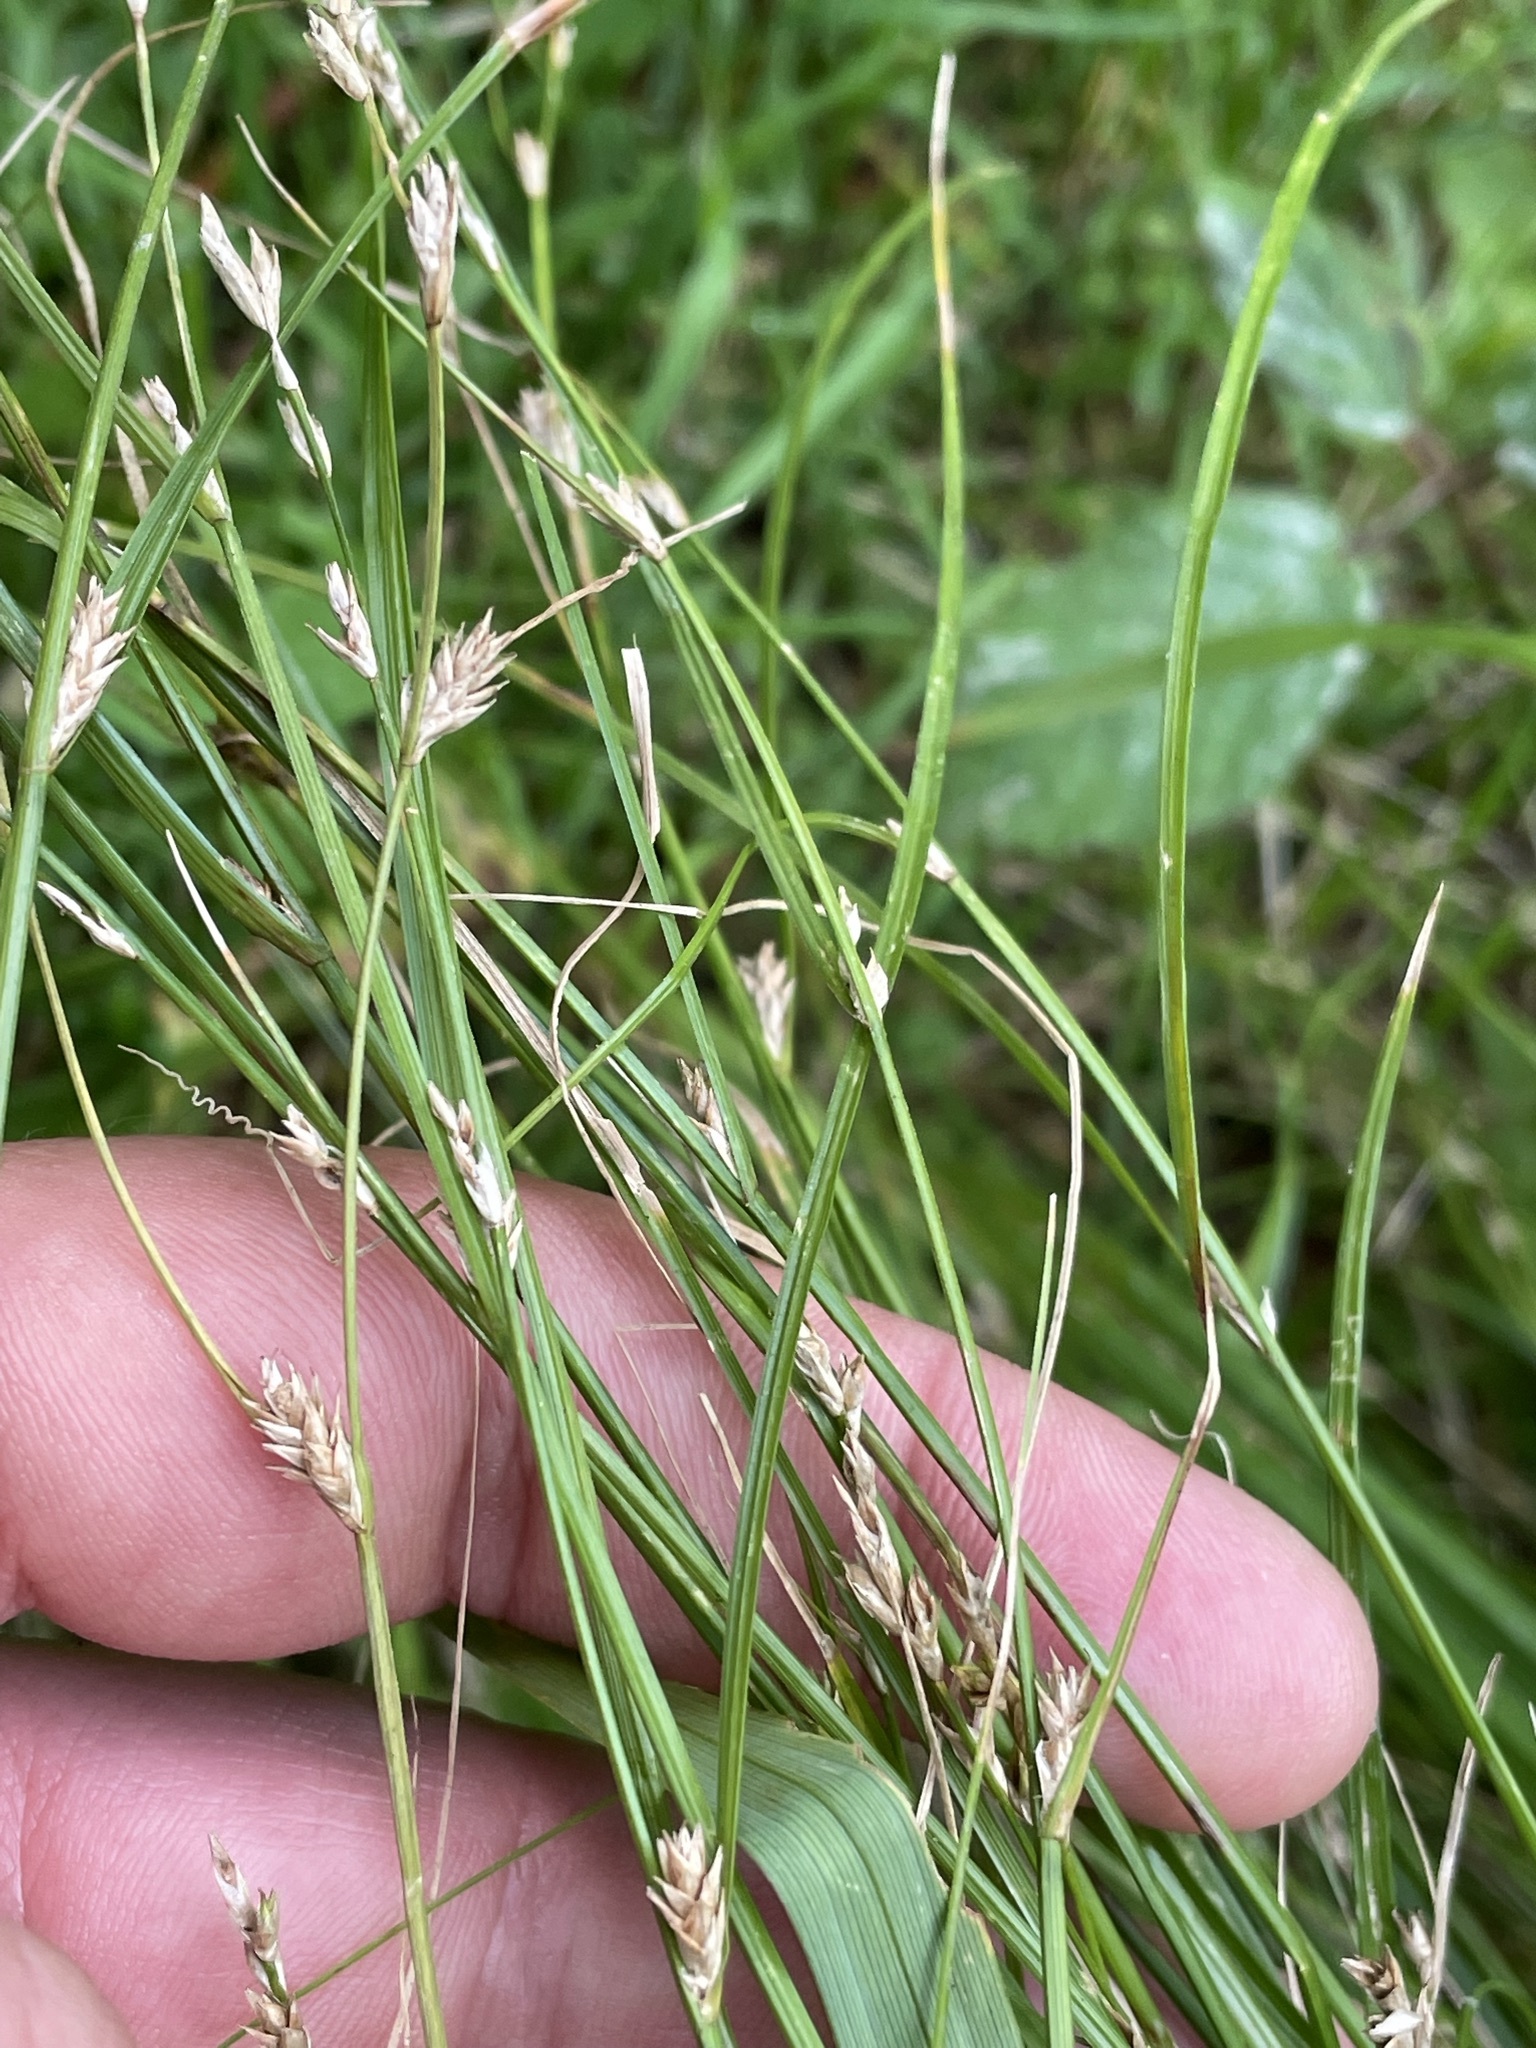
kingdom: Plantae
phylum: Tracheophyta
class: Liliopsida
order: Poales
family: Cyperaceae
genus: Carex
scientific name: Carex remota
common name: Remote sedge
